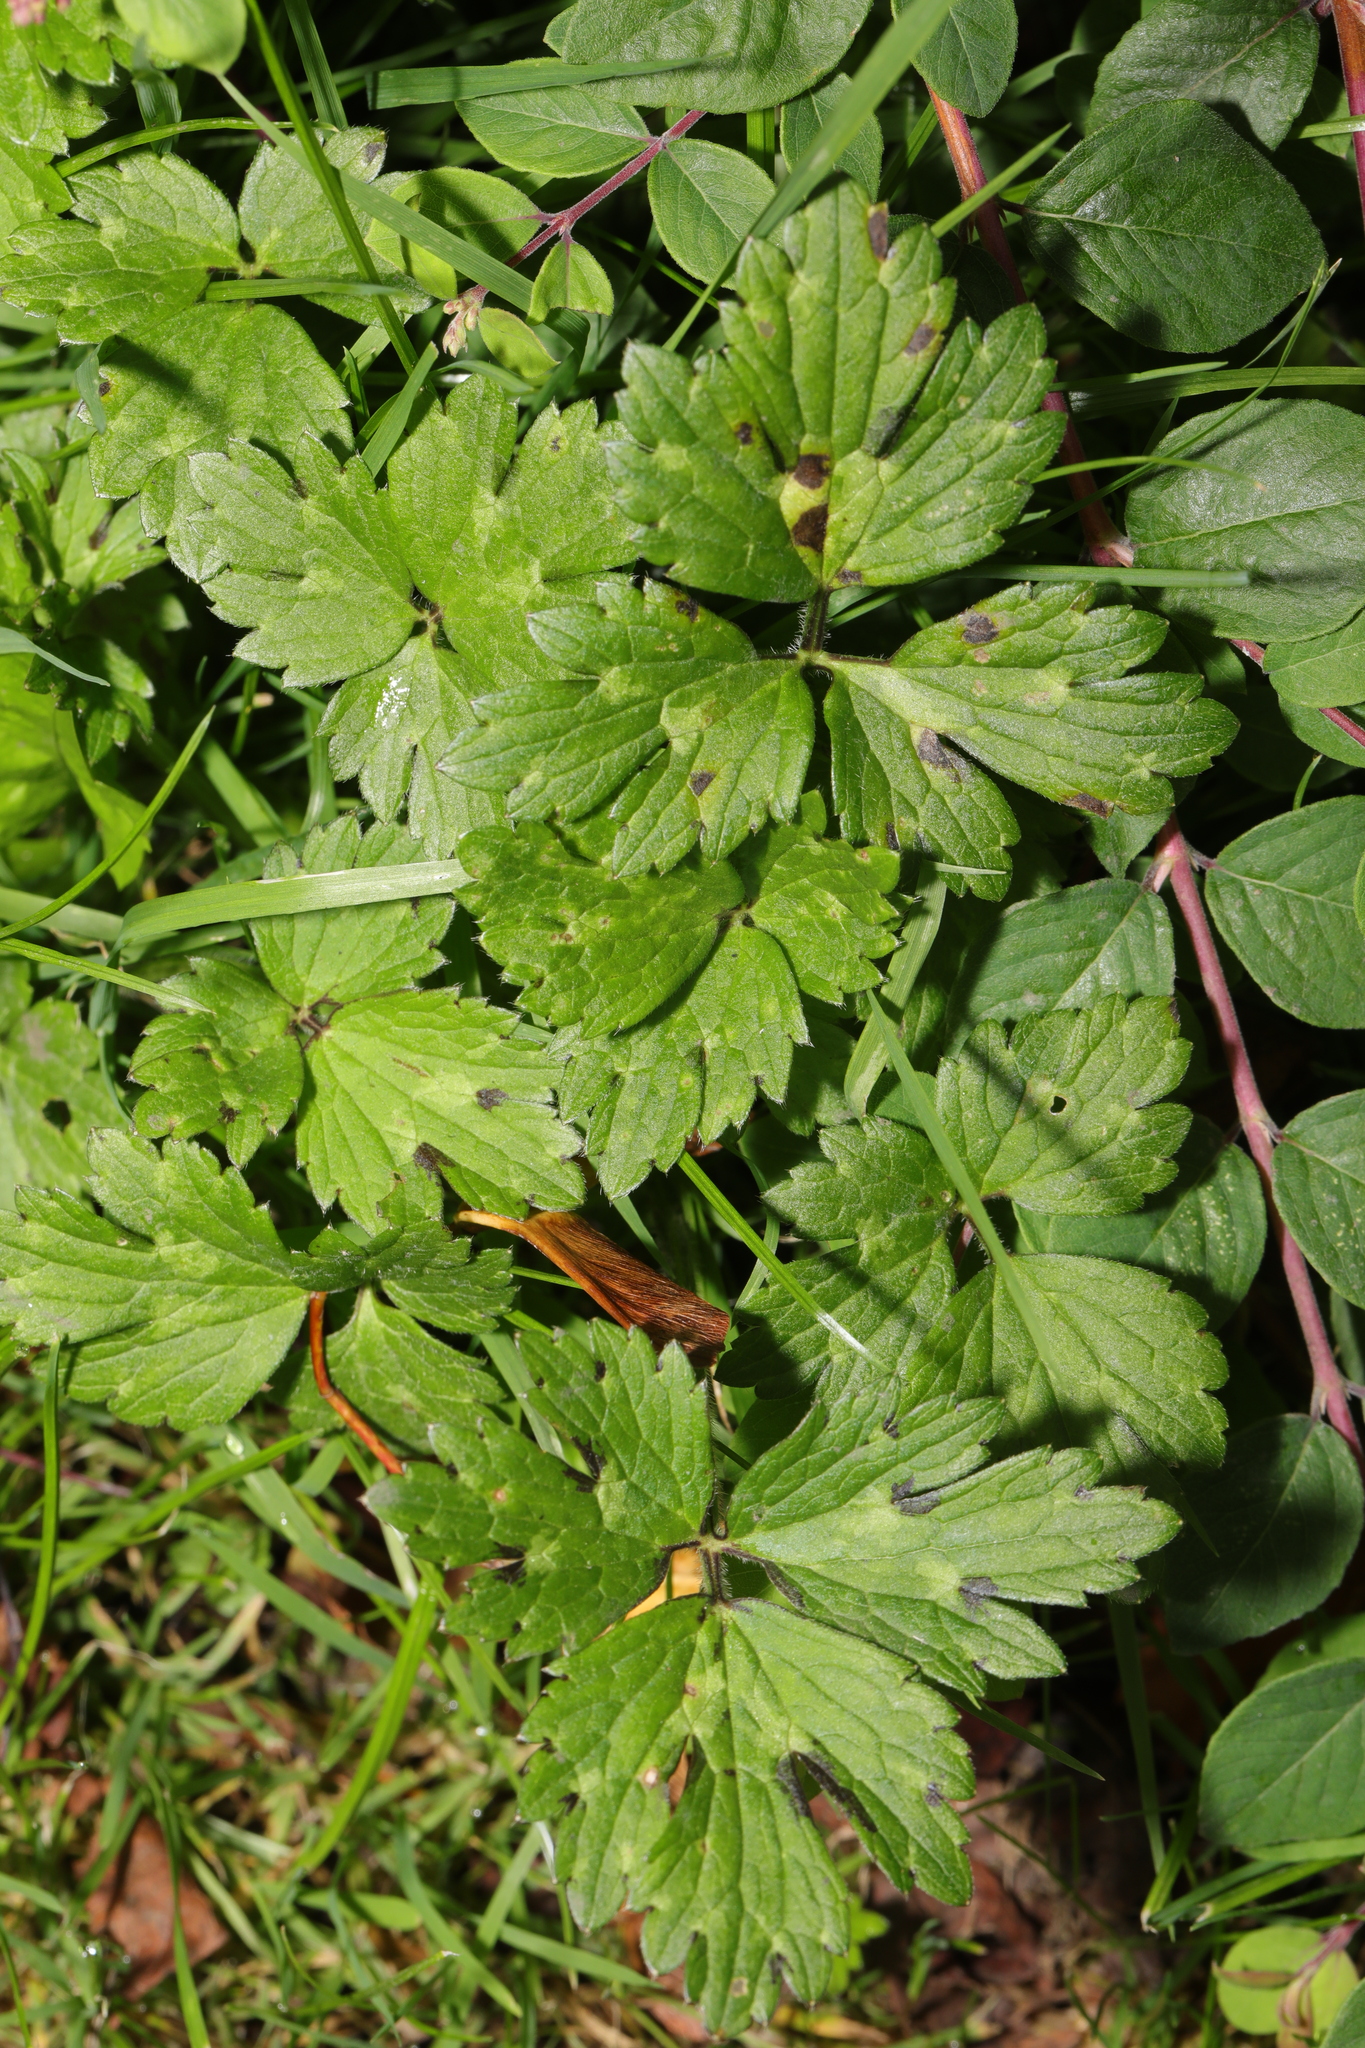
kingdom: Plantae
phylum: Tracheophyta
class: Magnoliopsida
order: Ranunculales
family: Ranunculaceae
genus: Ranunculus
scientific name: Ranunculus repens
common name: Creeping buttercup
